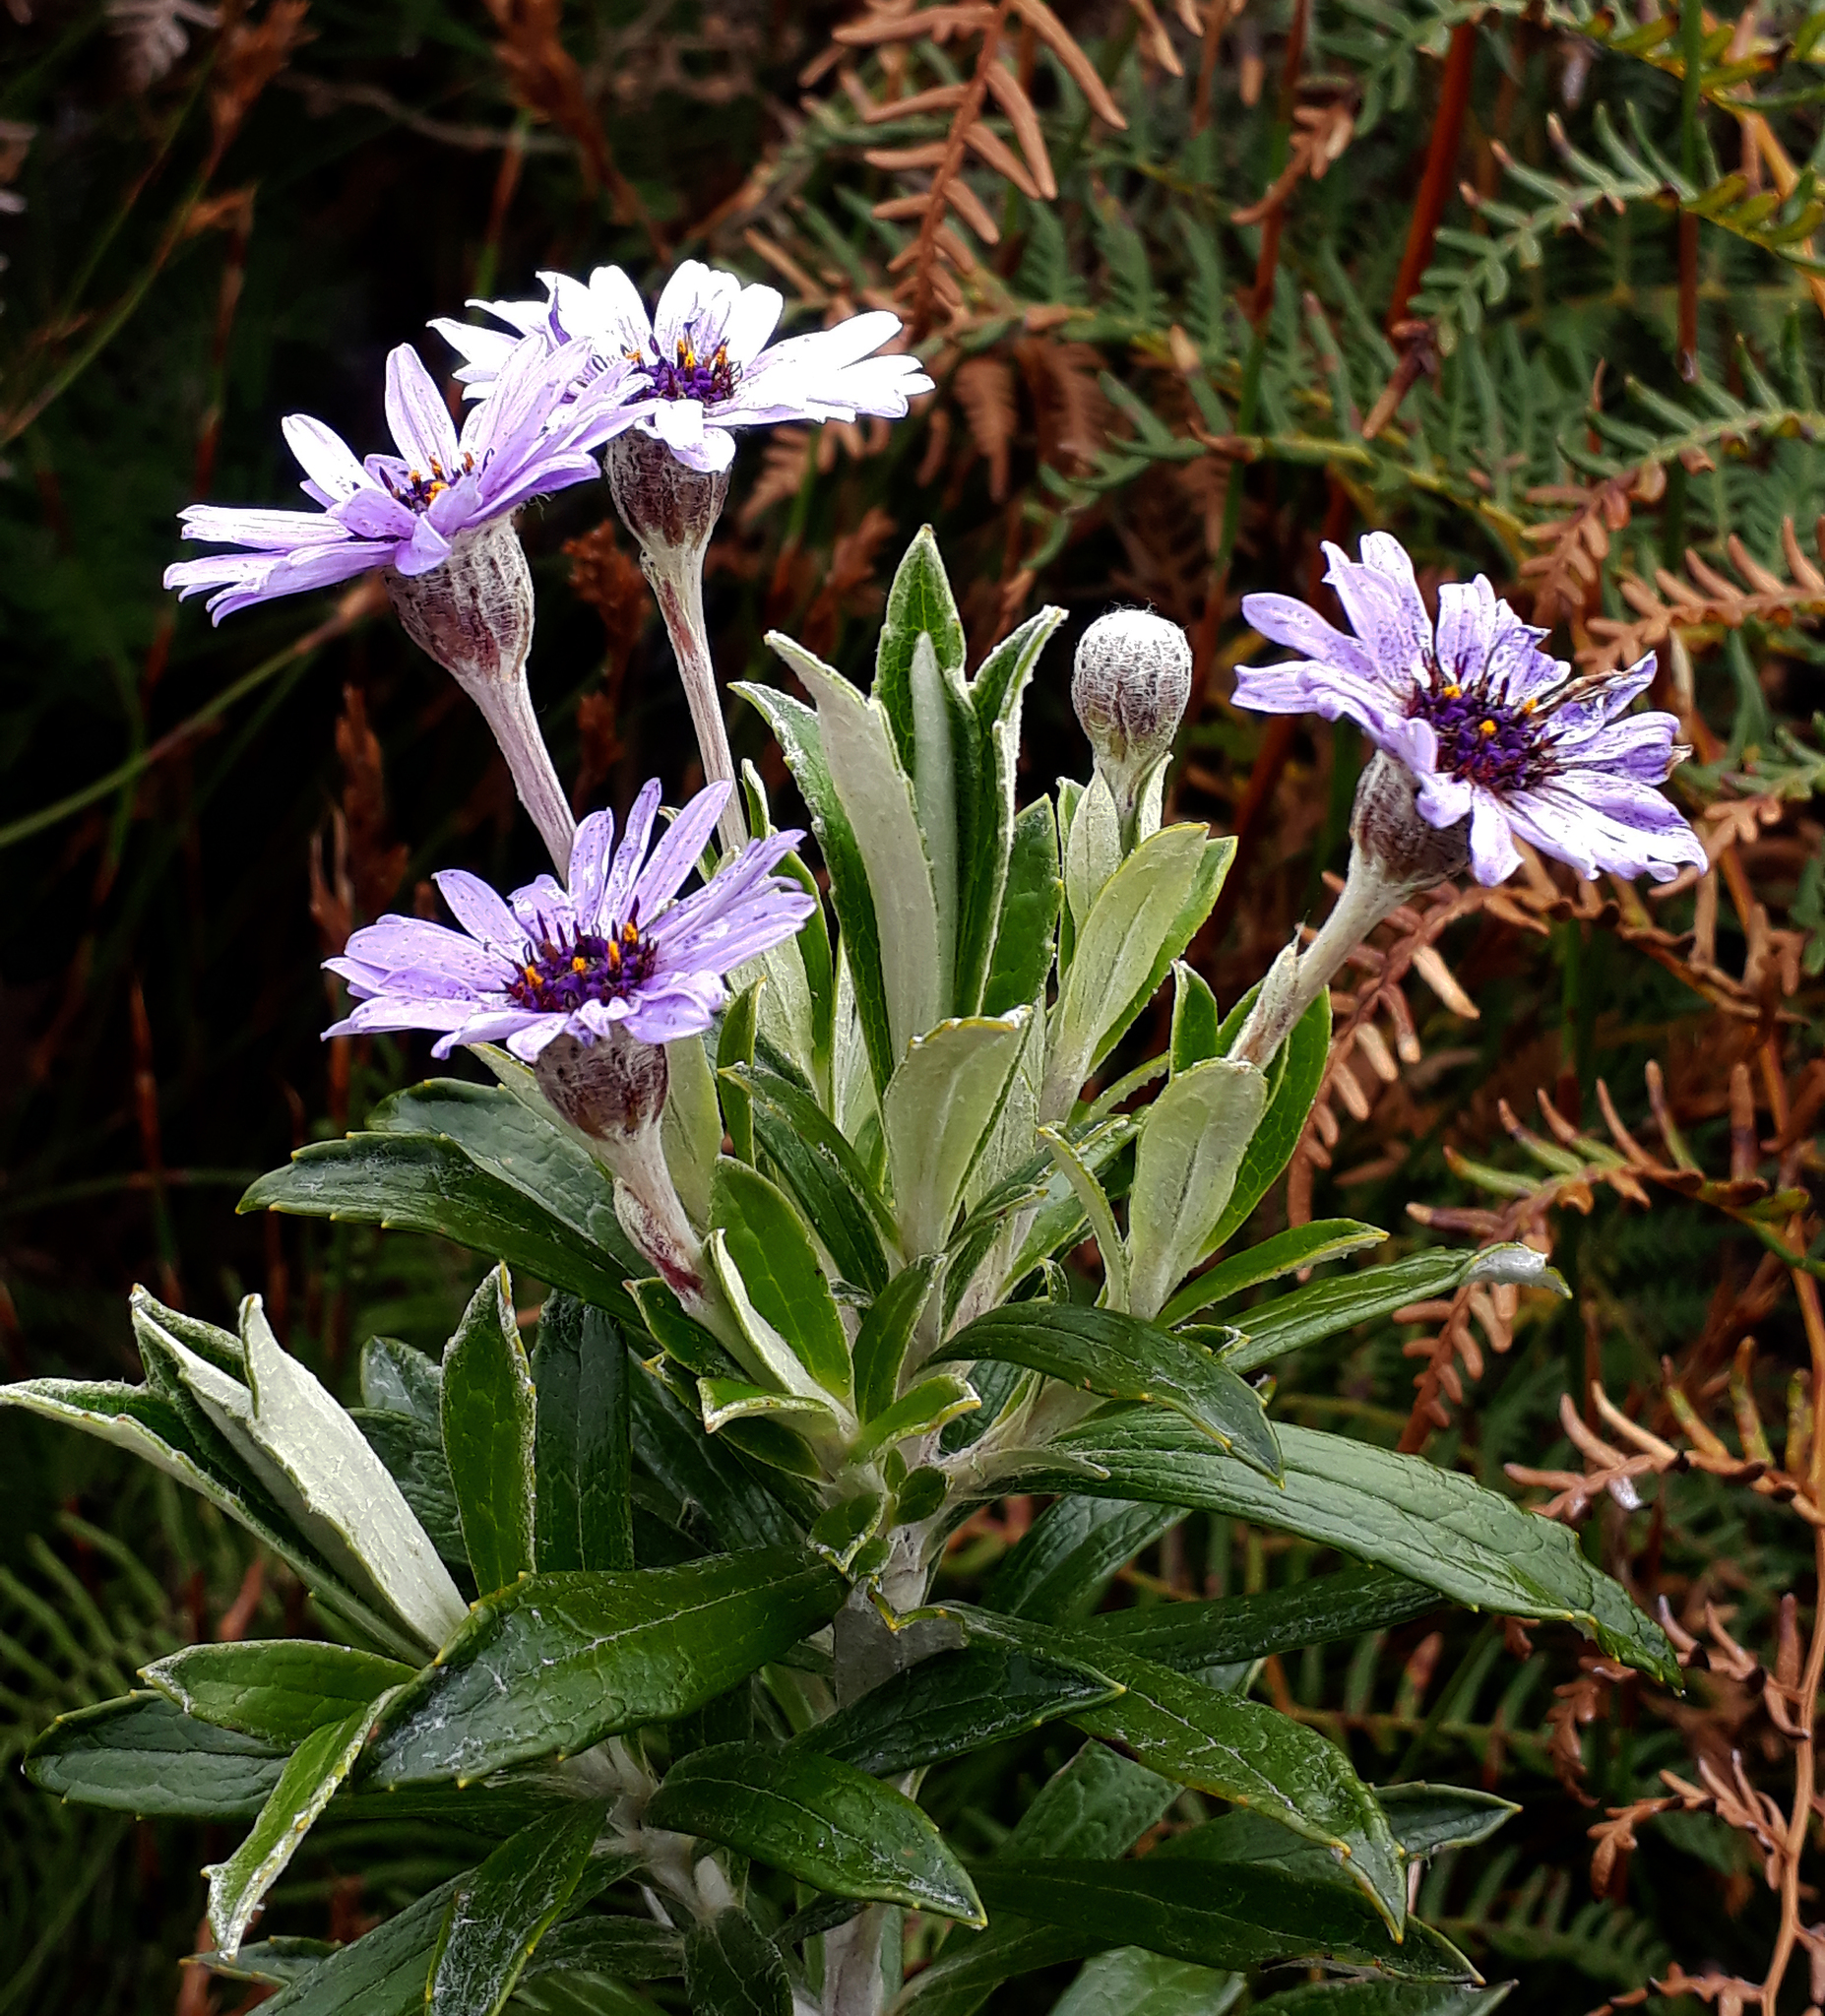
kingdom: Plantae
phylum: Tracheophyta
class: Magnoliopsida
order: Asterales
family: Asteraceae
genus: Macrolearia
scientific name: Macrolearia semidentata
